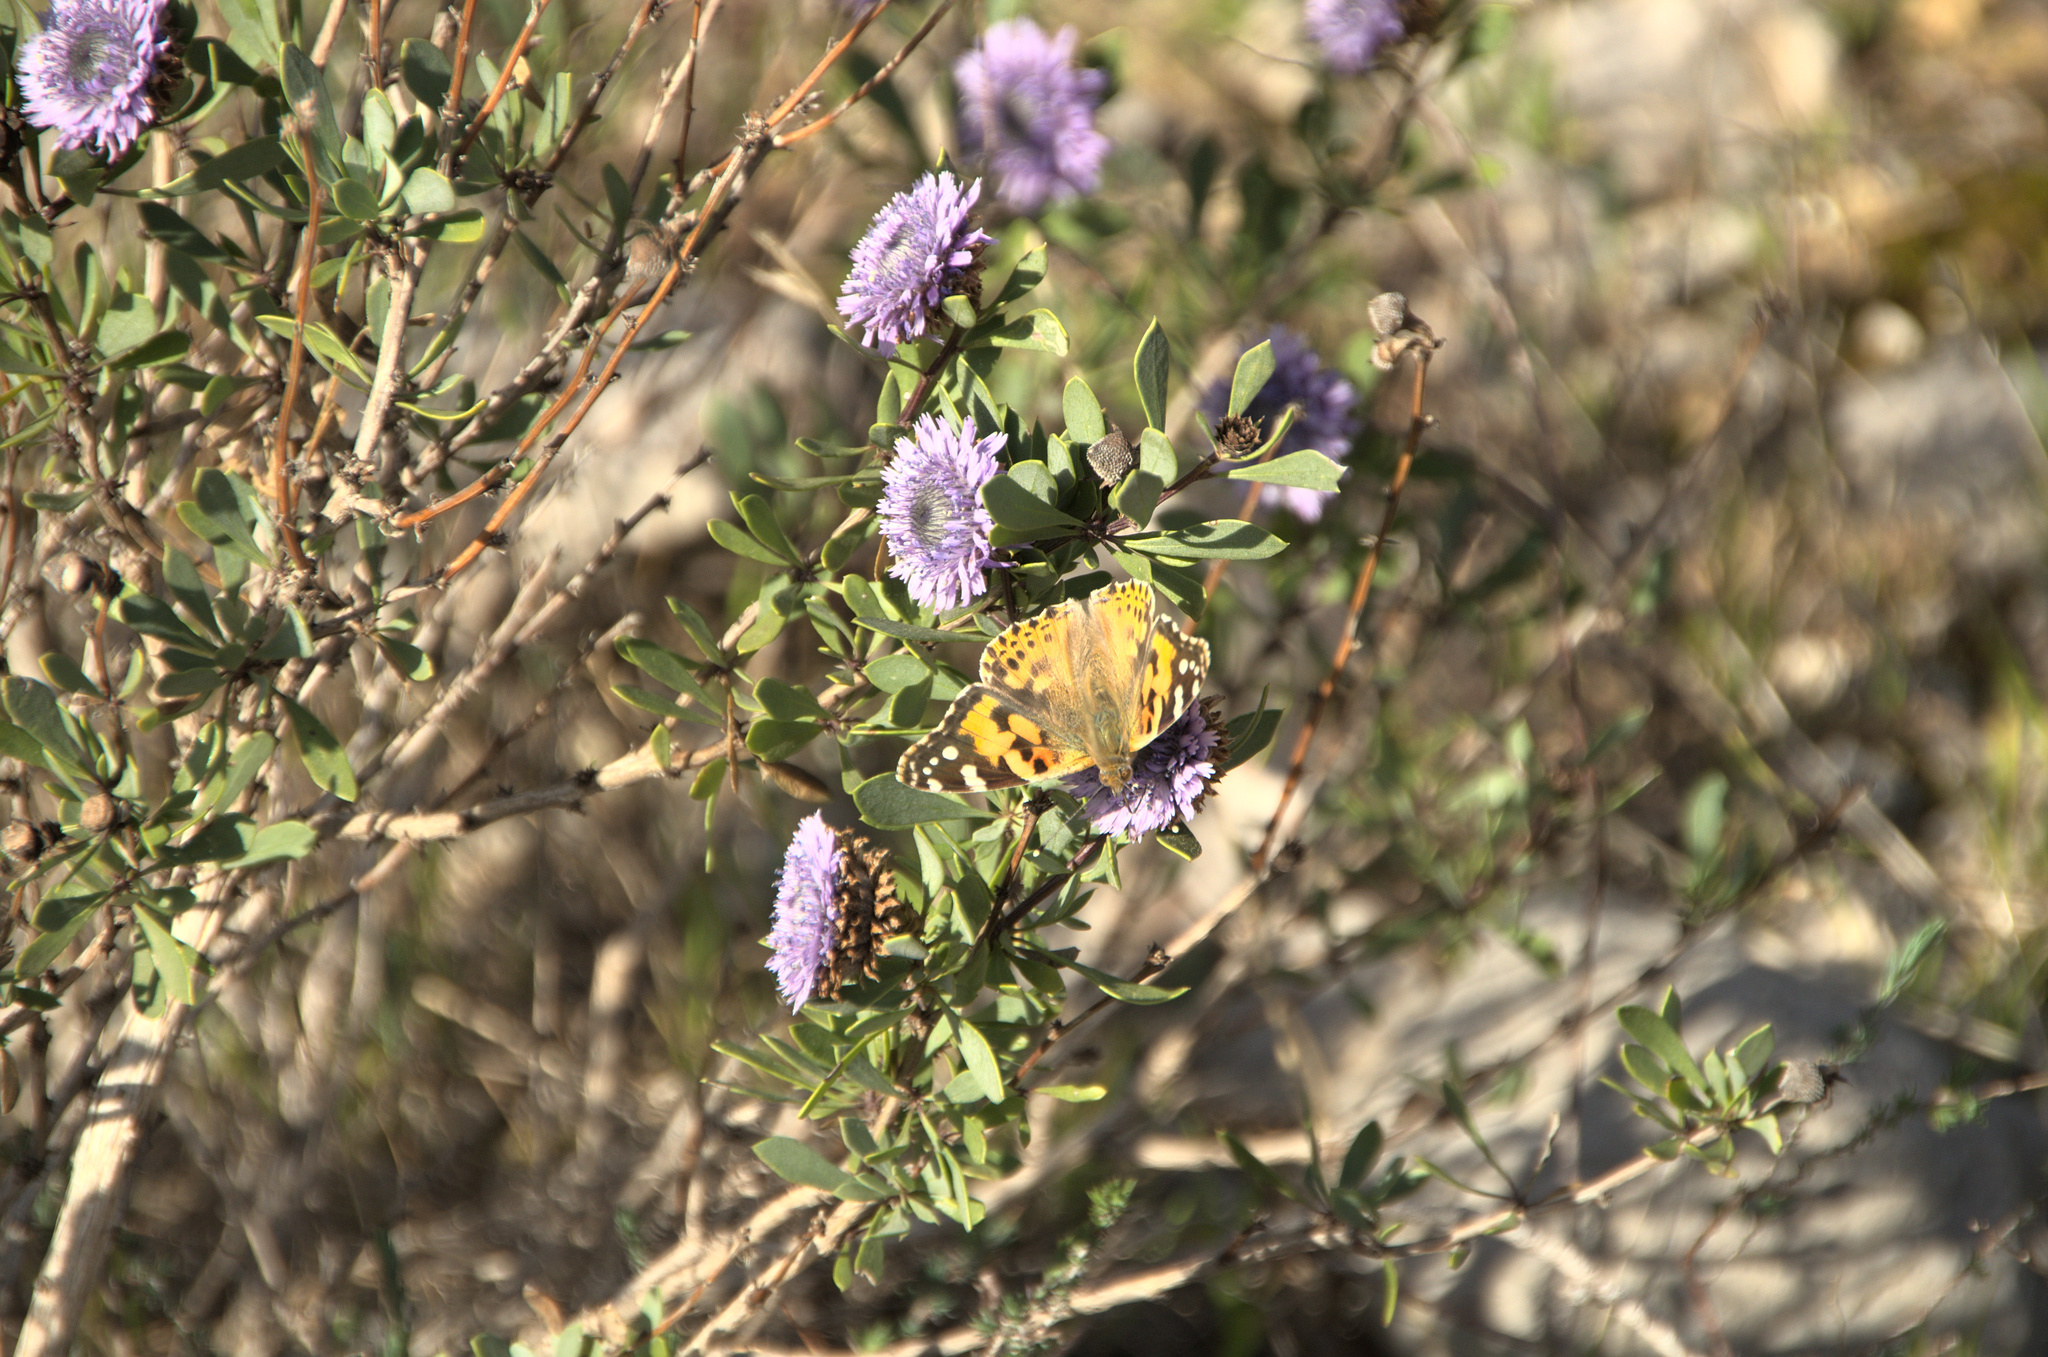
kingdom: Animalia
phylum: Arthropoda
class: Insecta
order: Lepidoptera
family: Nymphalidae
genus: Vanessa
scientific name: Vanessa cardui
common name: Painted lady
